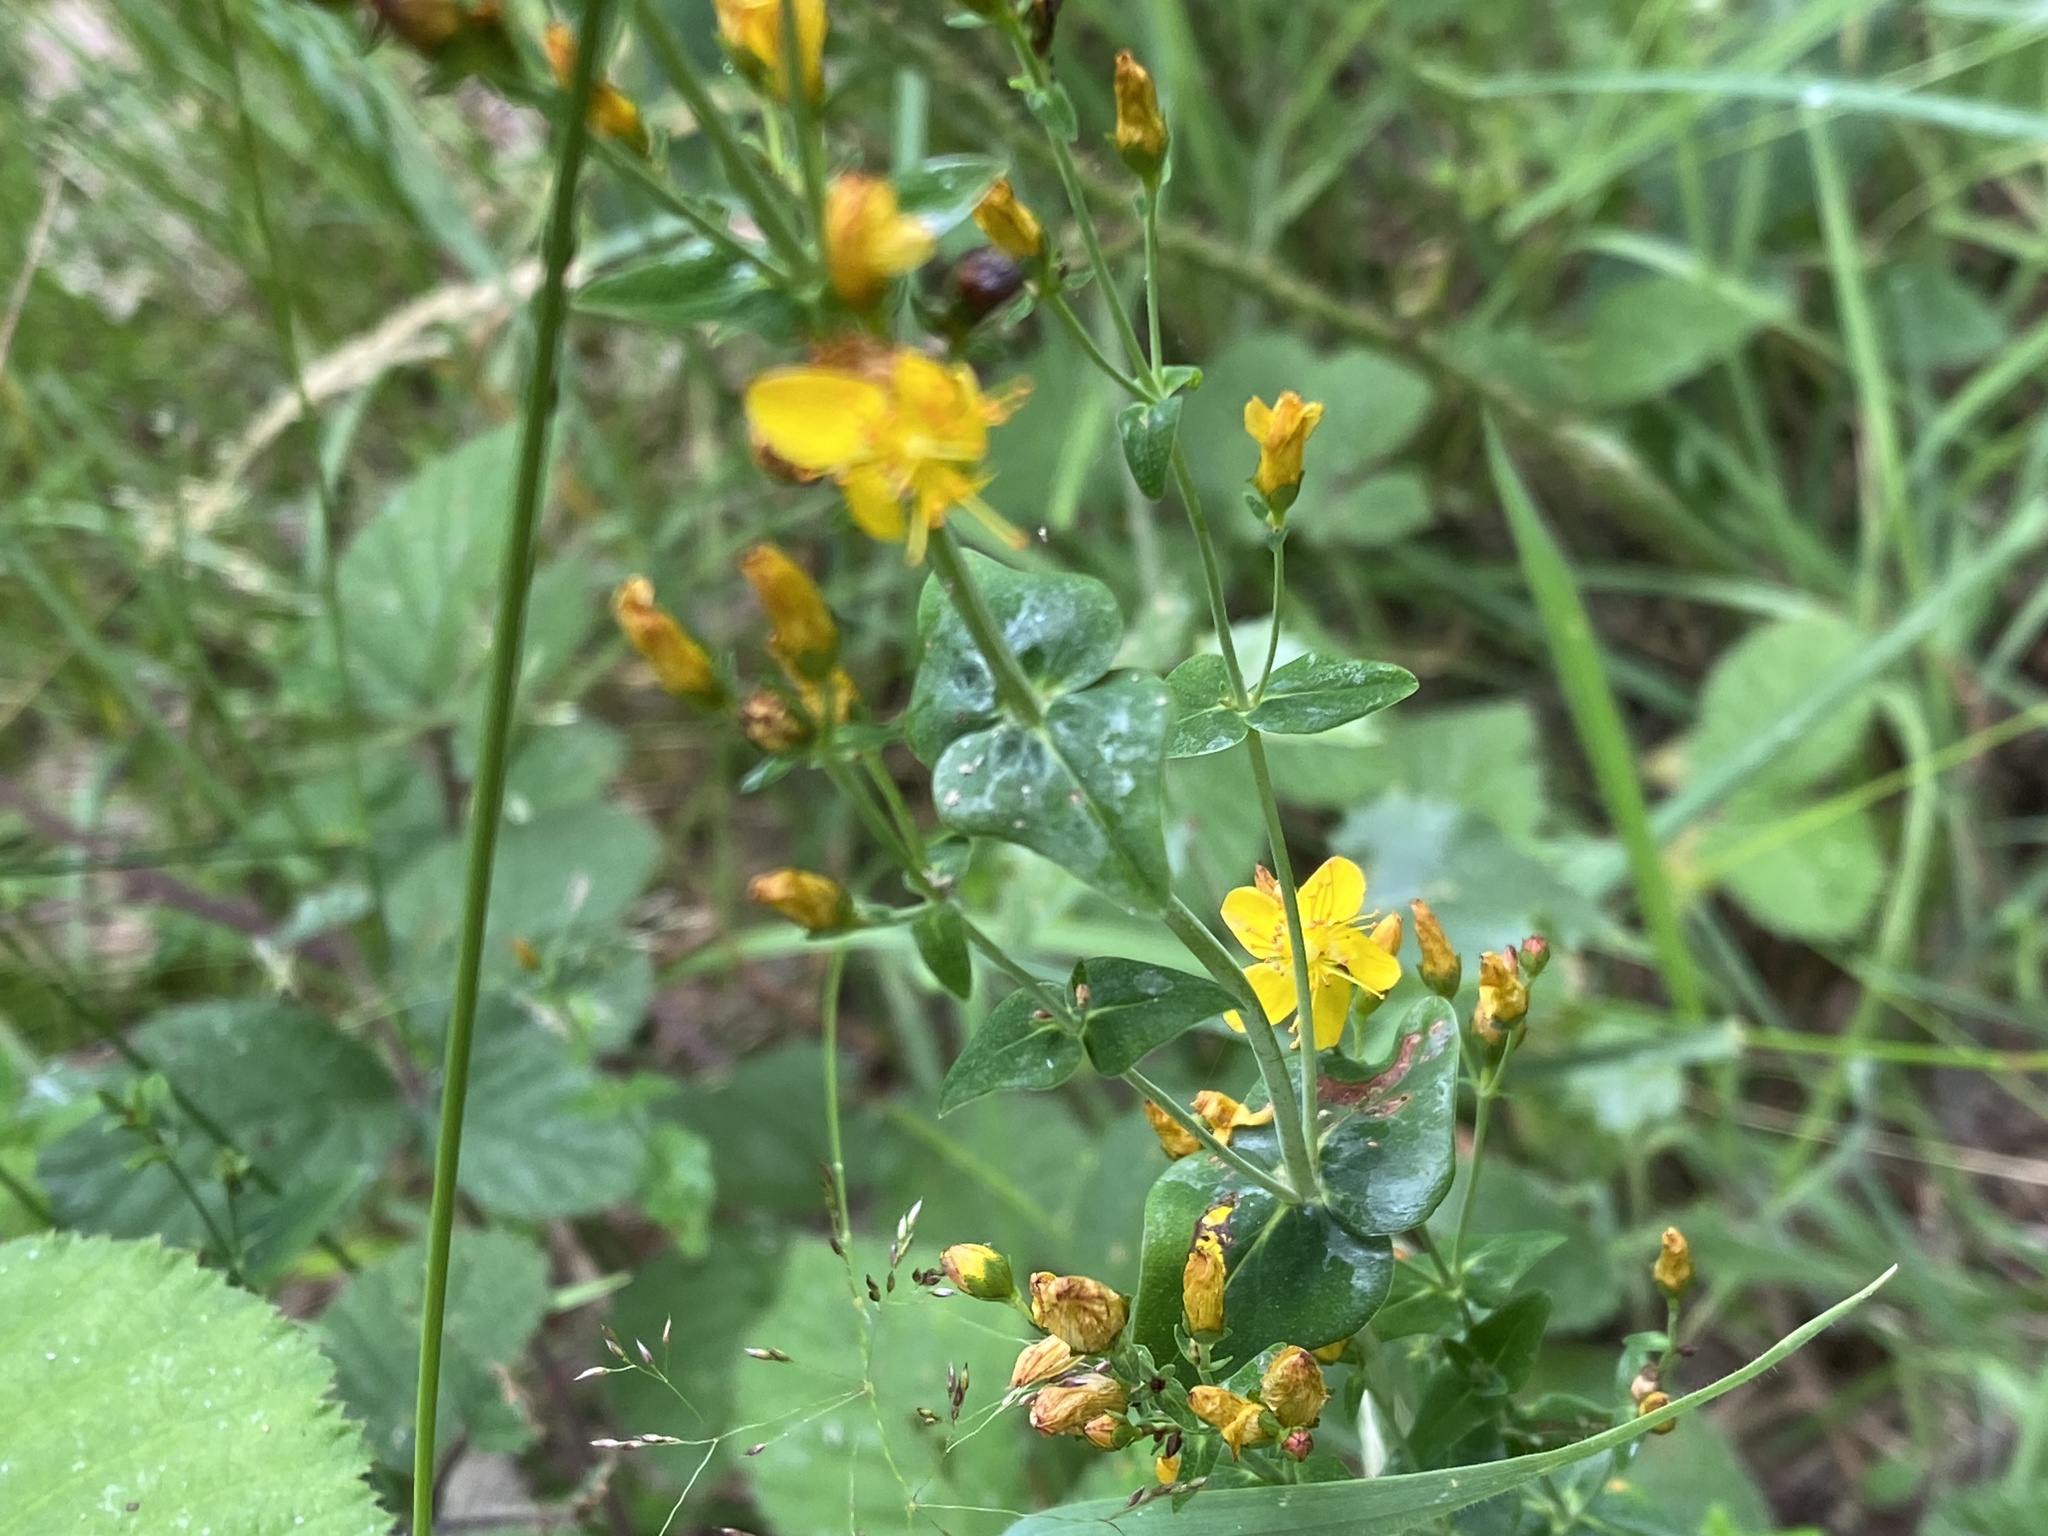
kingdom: Plantae
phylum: Tracheophyta
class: Magnoliopsida
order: Malpighiales
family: Hypericaceae
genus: Hypericum
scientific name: Hypericum pulchrum
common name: Slender st. john's-wort
